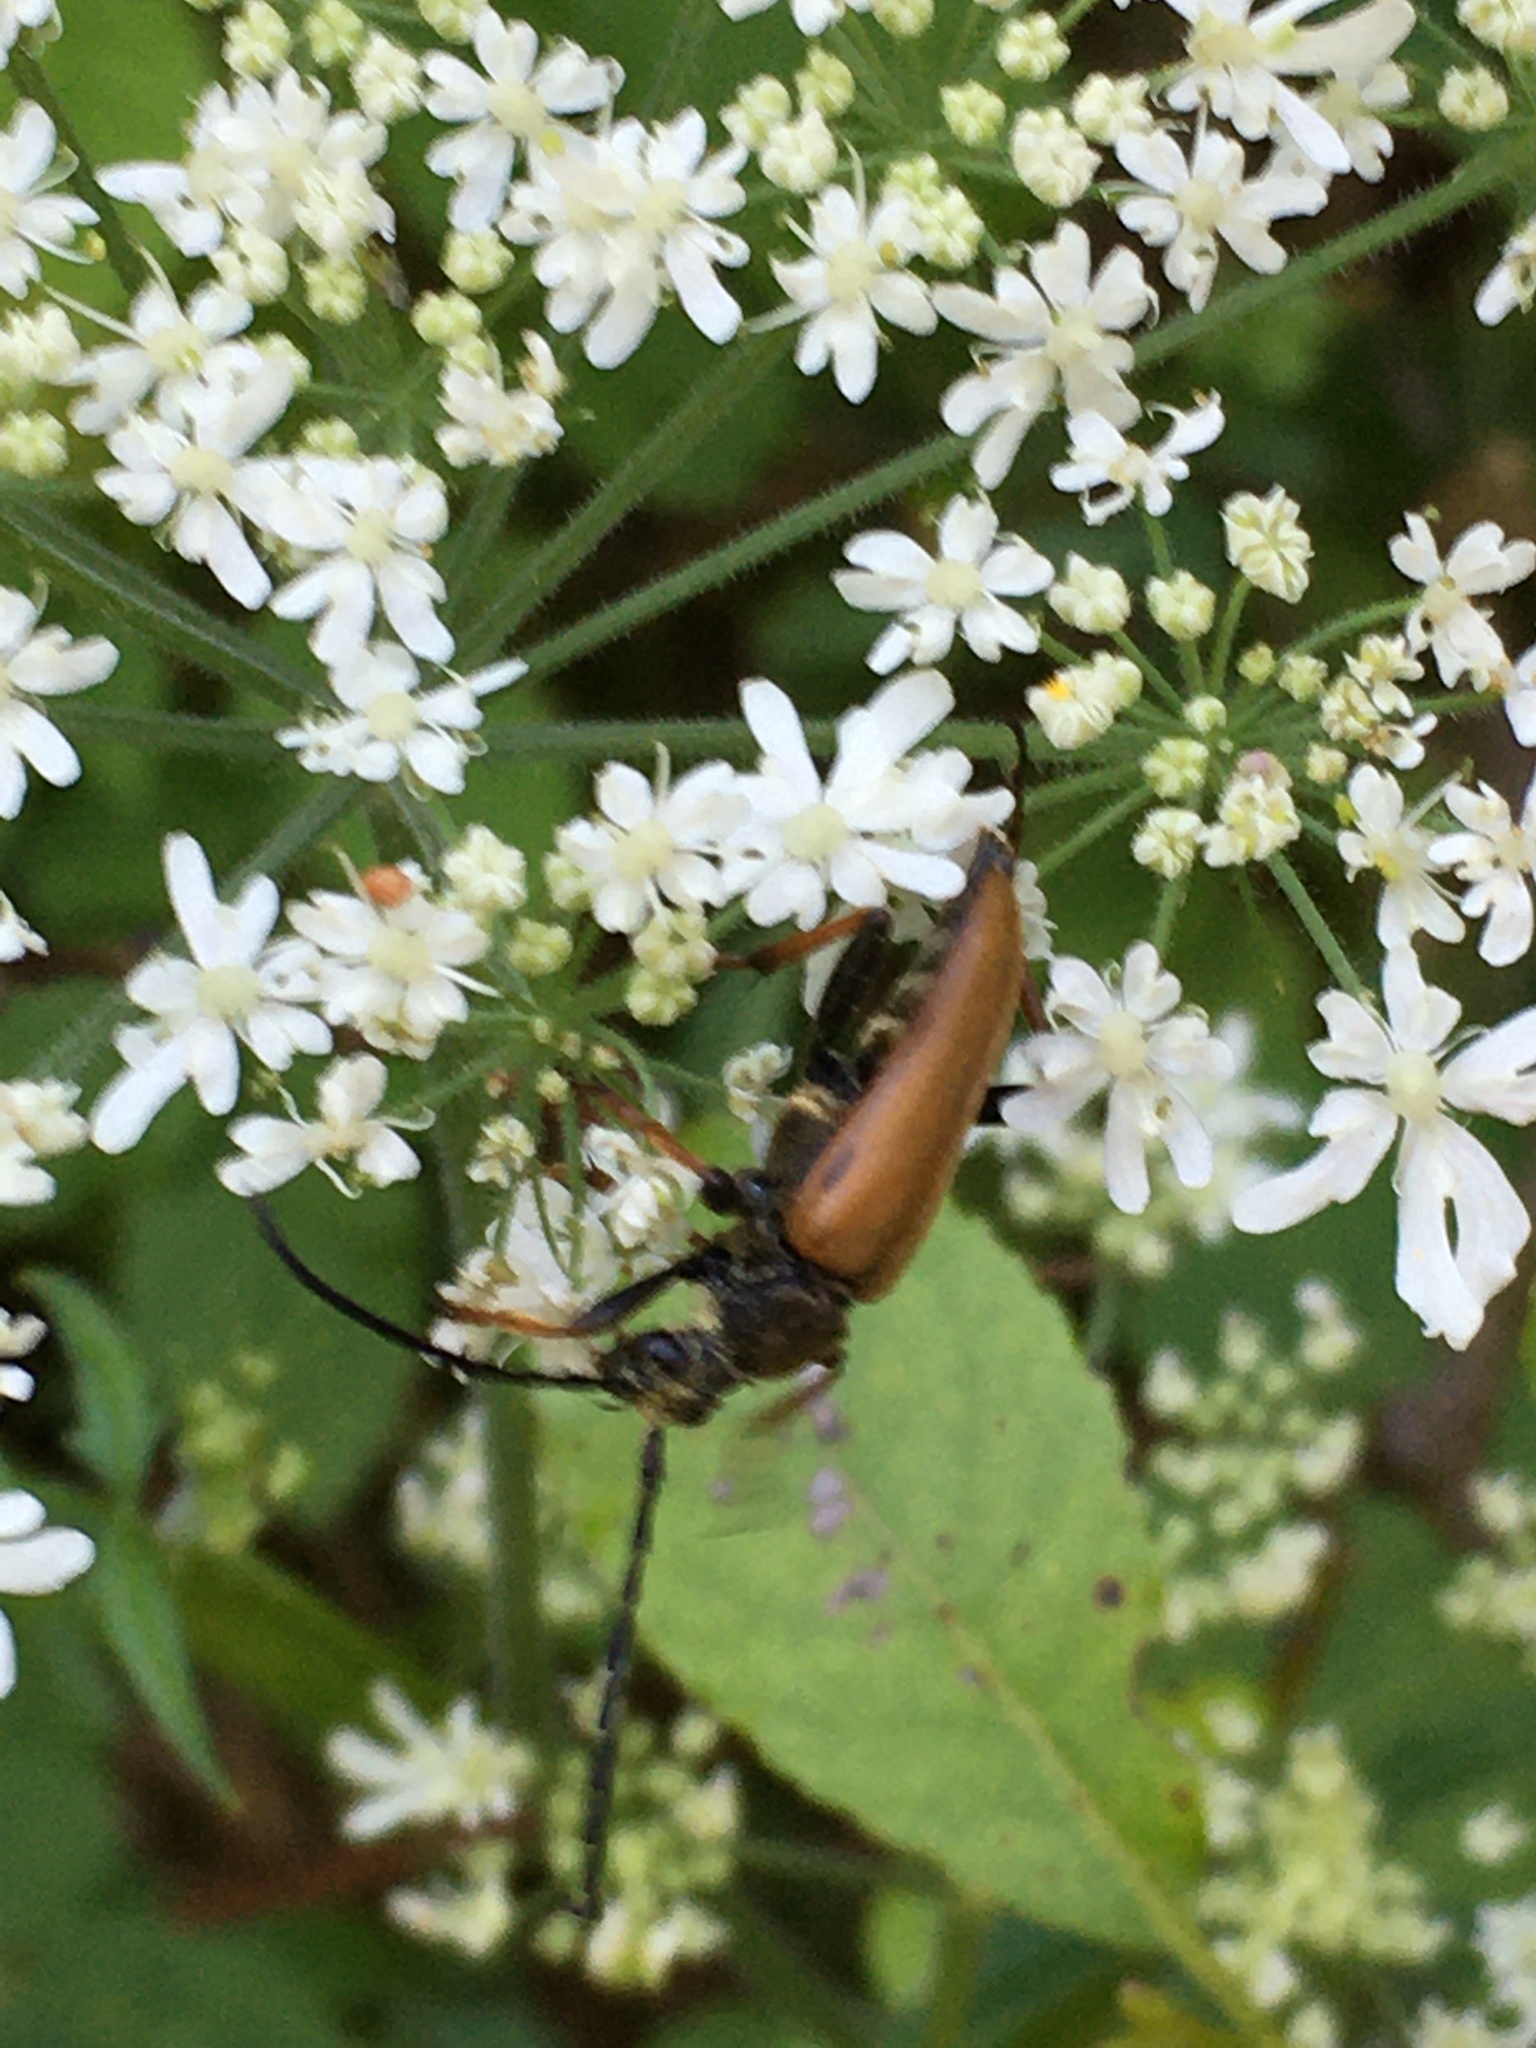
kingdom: Animalia
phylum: Arthropoda
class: Insecta
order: Coleoptera
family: Cerambycidae
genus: Stictoleptura
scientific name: Stictoleptura rubra
